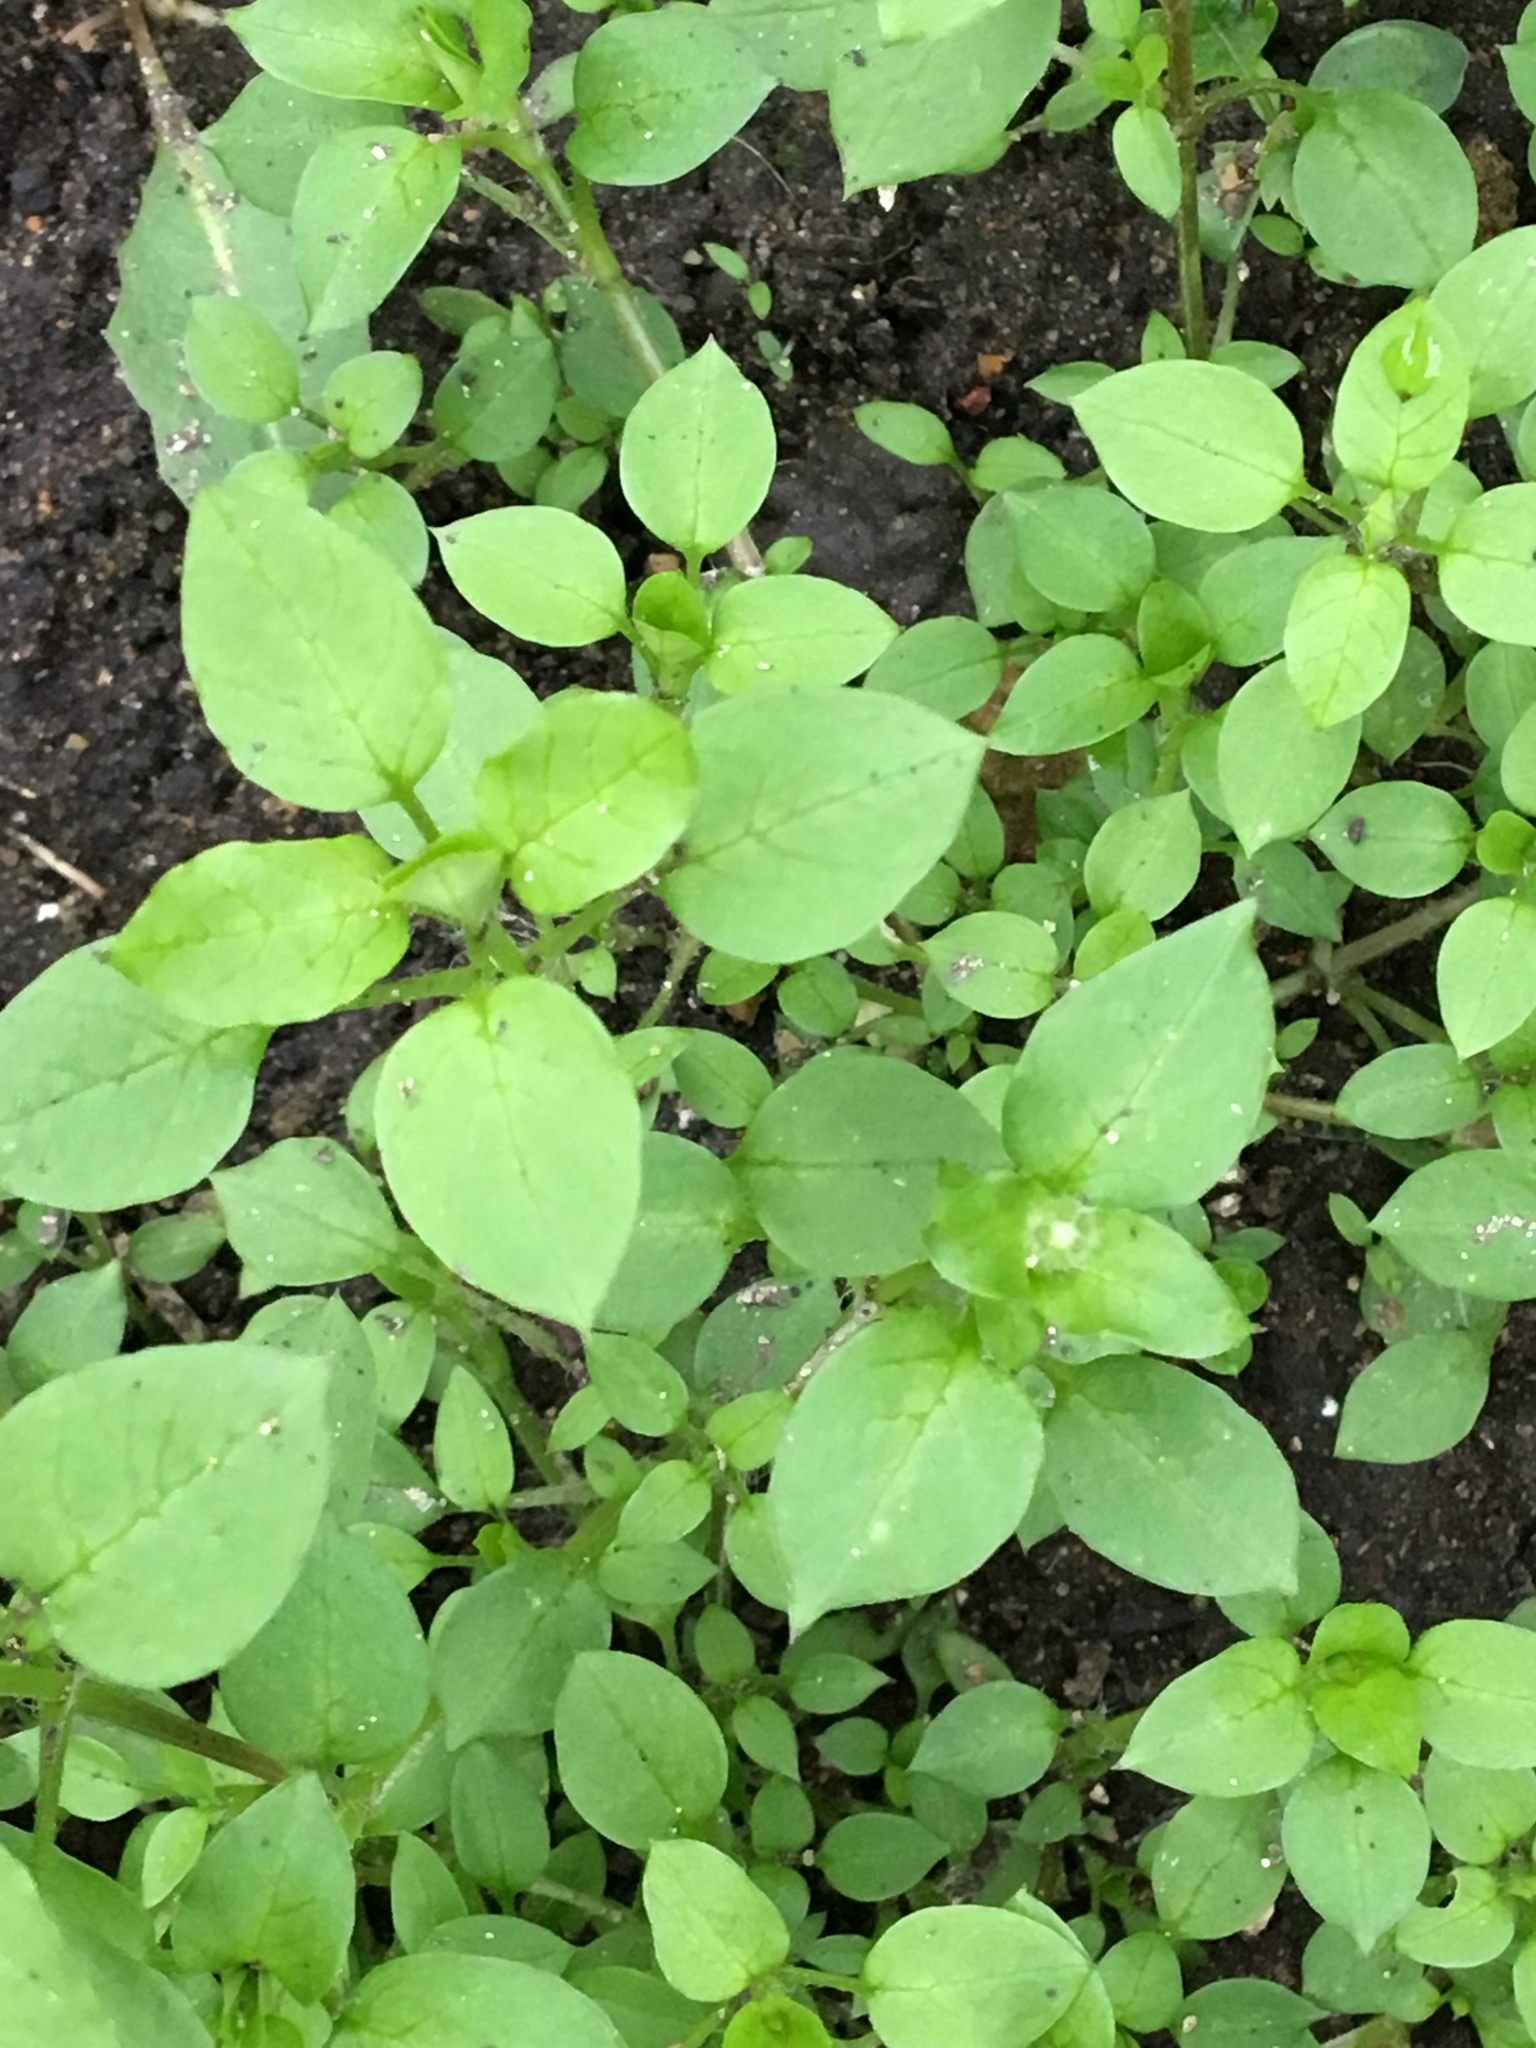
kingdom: Plantae
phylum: Tracheophyta
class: Magnoliopsida
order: Caryophyllales
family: Caryophyllaceae
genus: Stellaria
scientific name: Stellaria media
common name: Common chickweed
